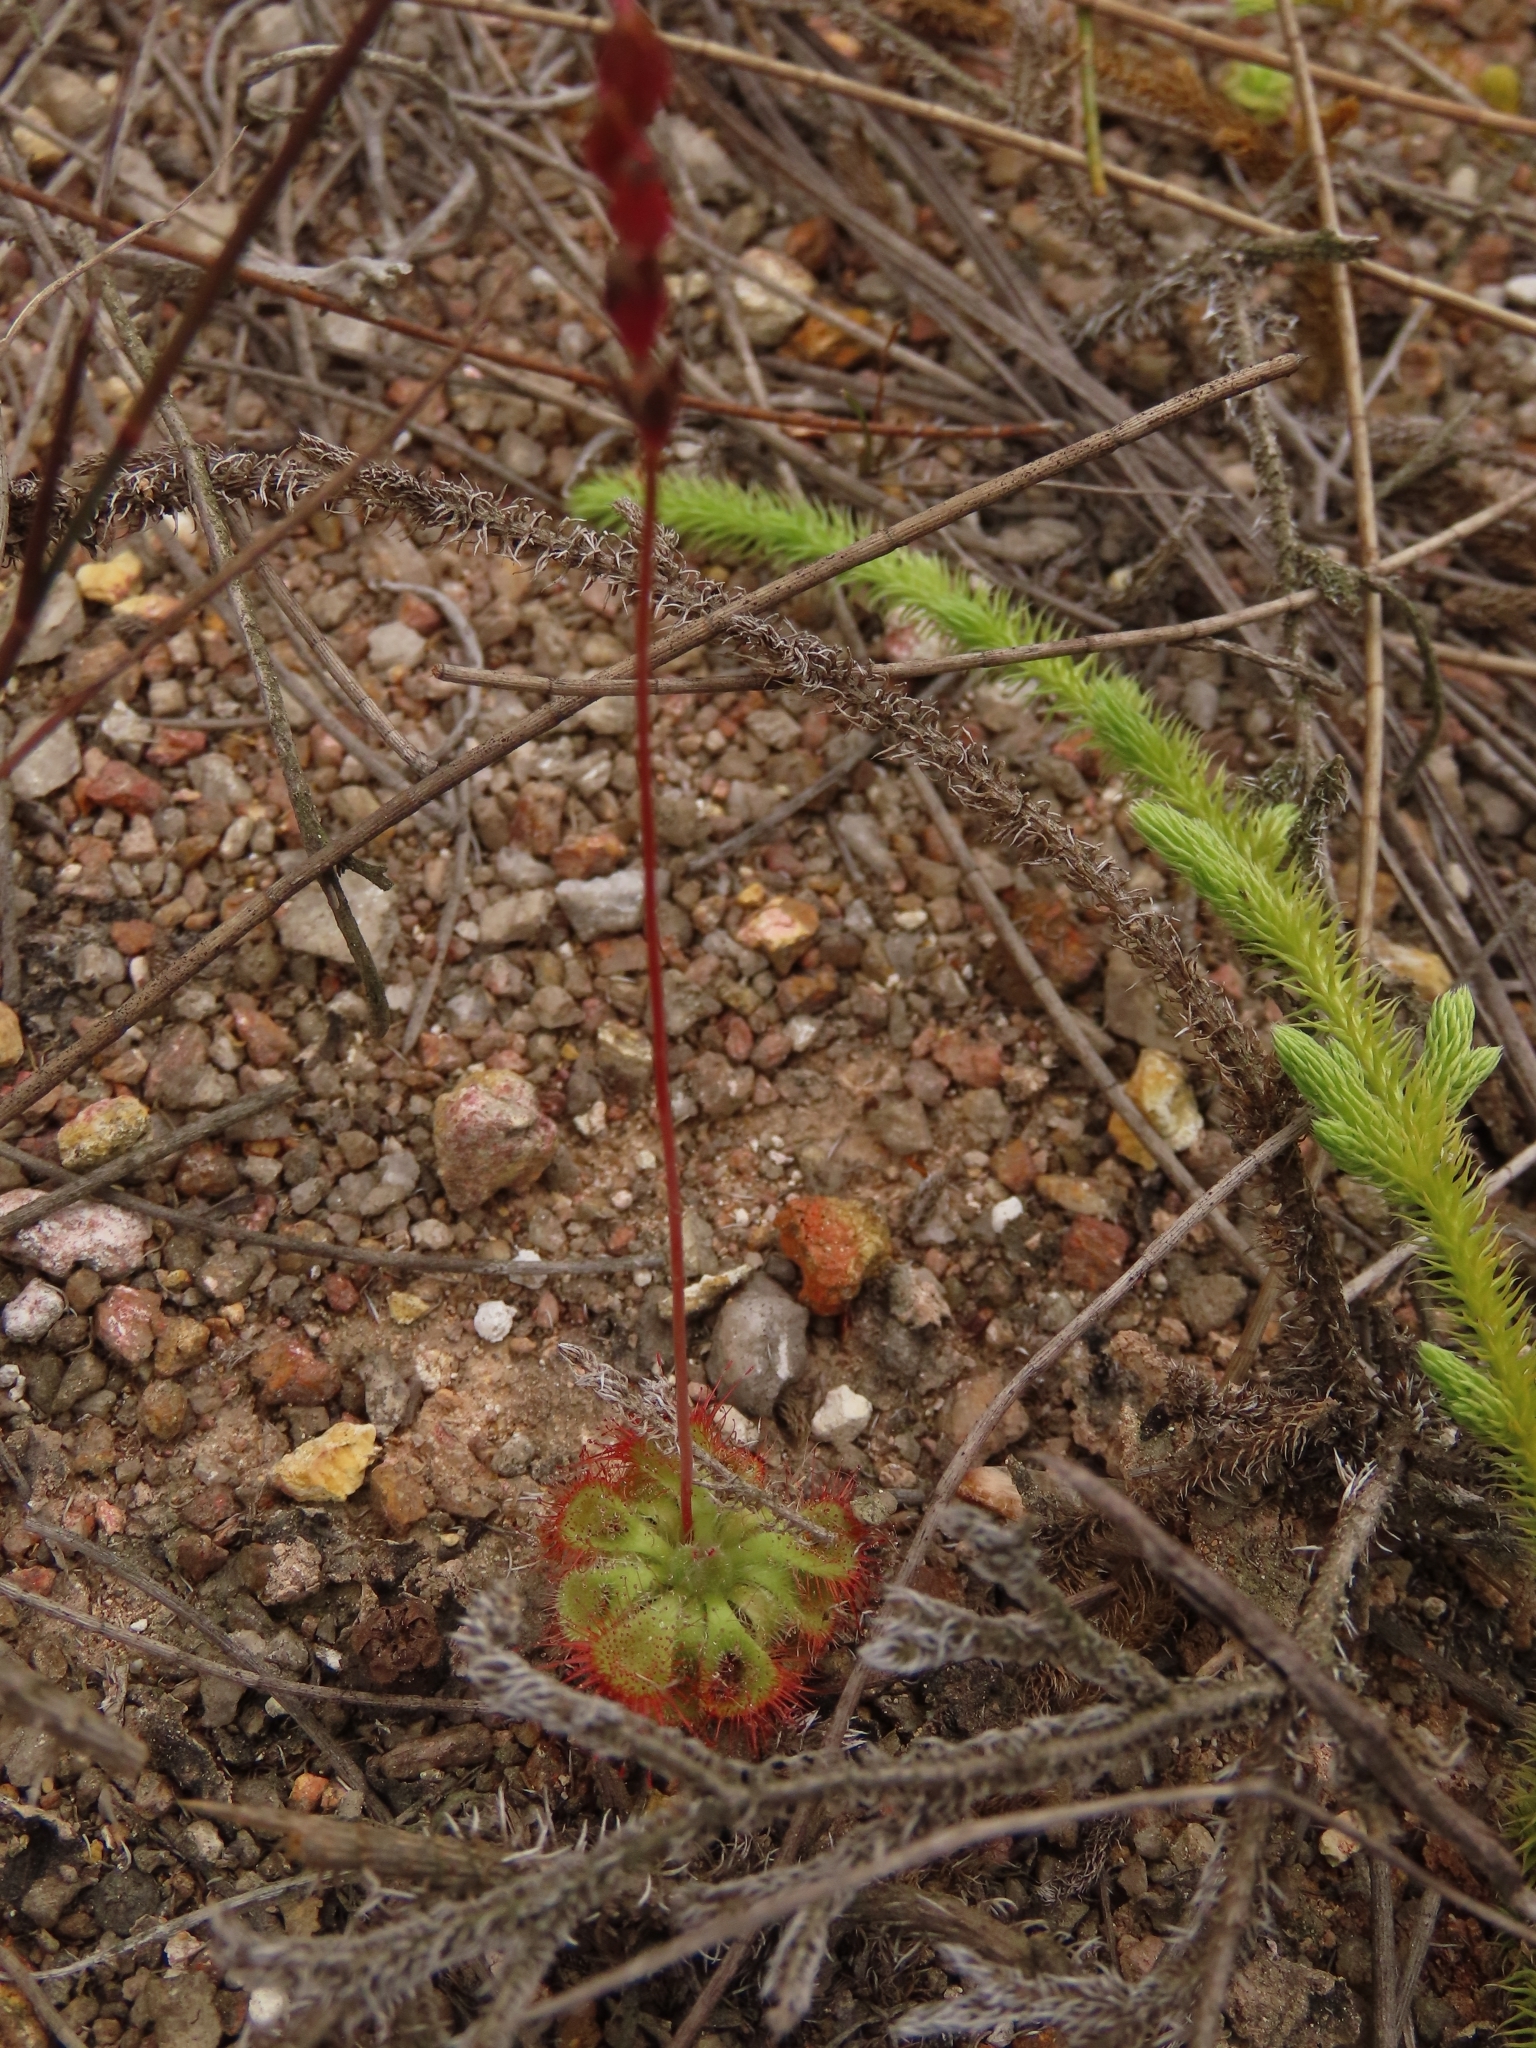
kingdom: Plantae
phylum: Tracheophyta
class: Magnoliopsida
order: Caryophyllales
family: Droseraceae
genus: Drosera
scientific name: Drosera spatulata
